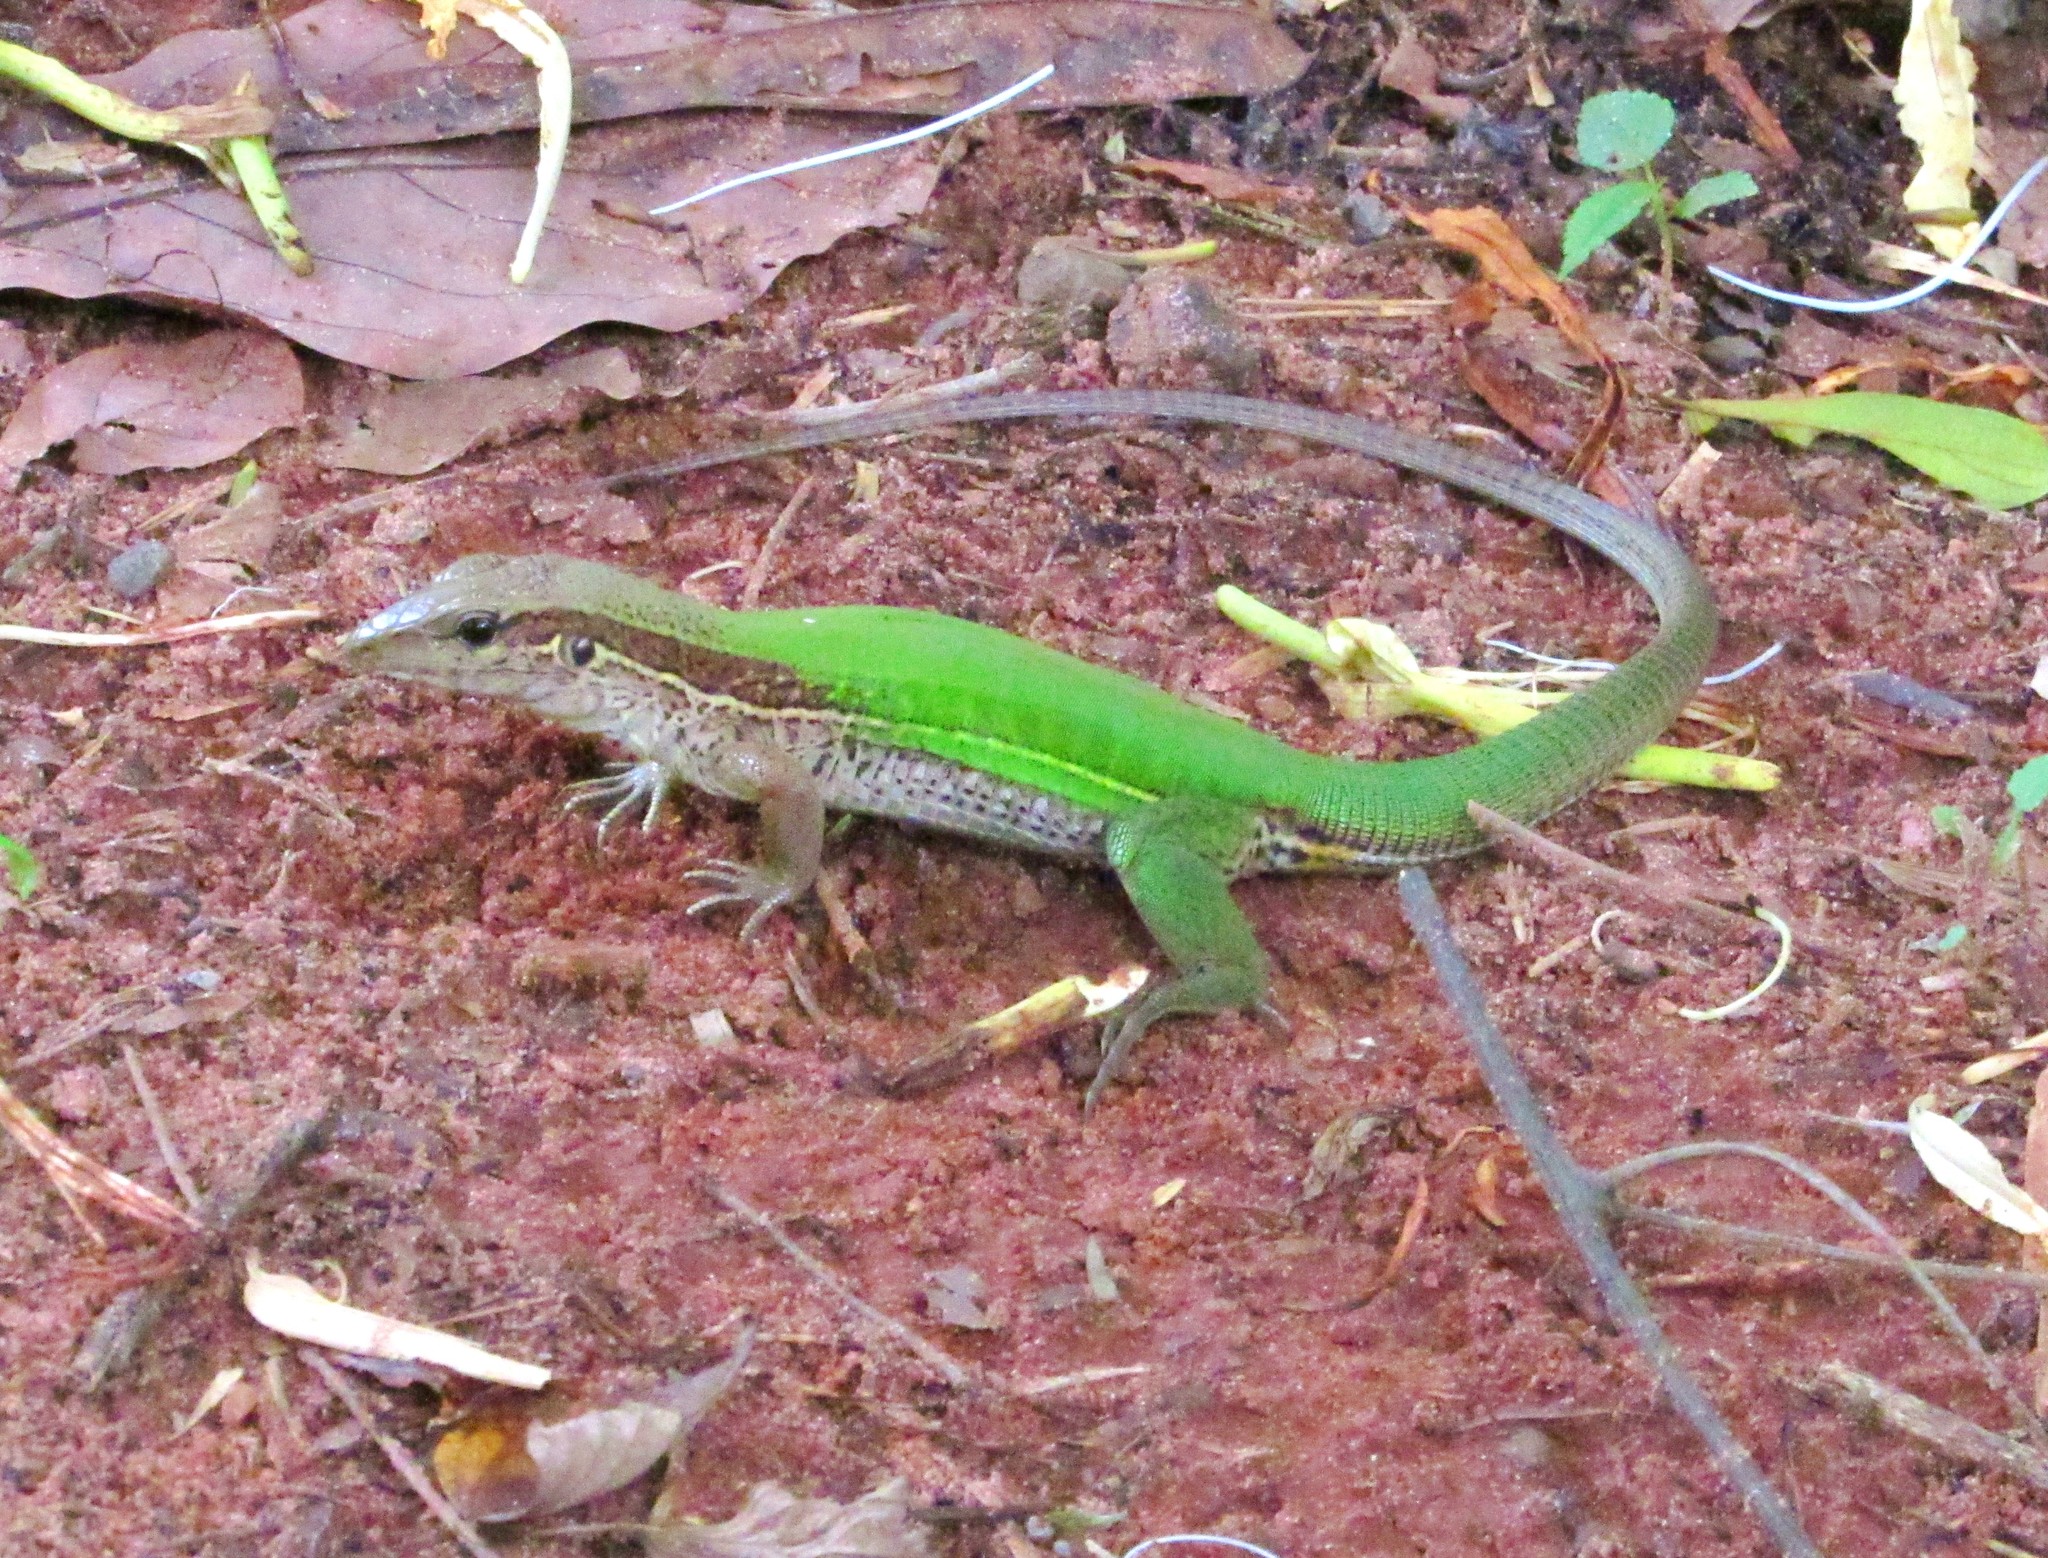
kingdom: Animalia
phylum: Chordata
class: Squamata
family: Teiidae
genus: Ameiva
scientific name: Ameiva ameiva
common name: Giant ameiva
